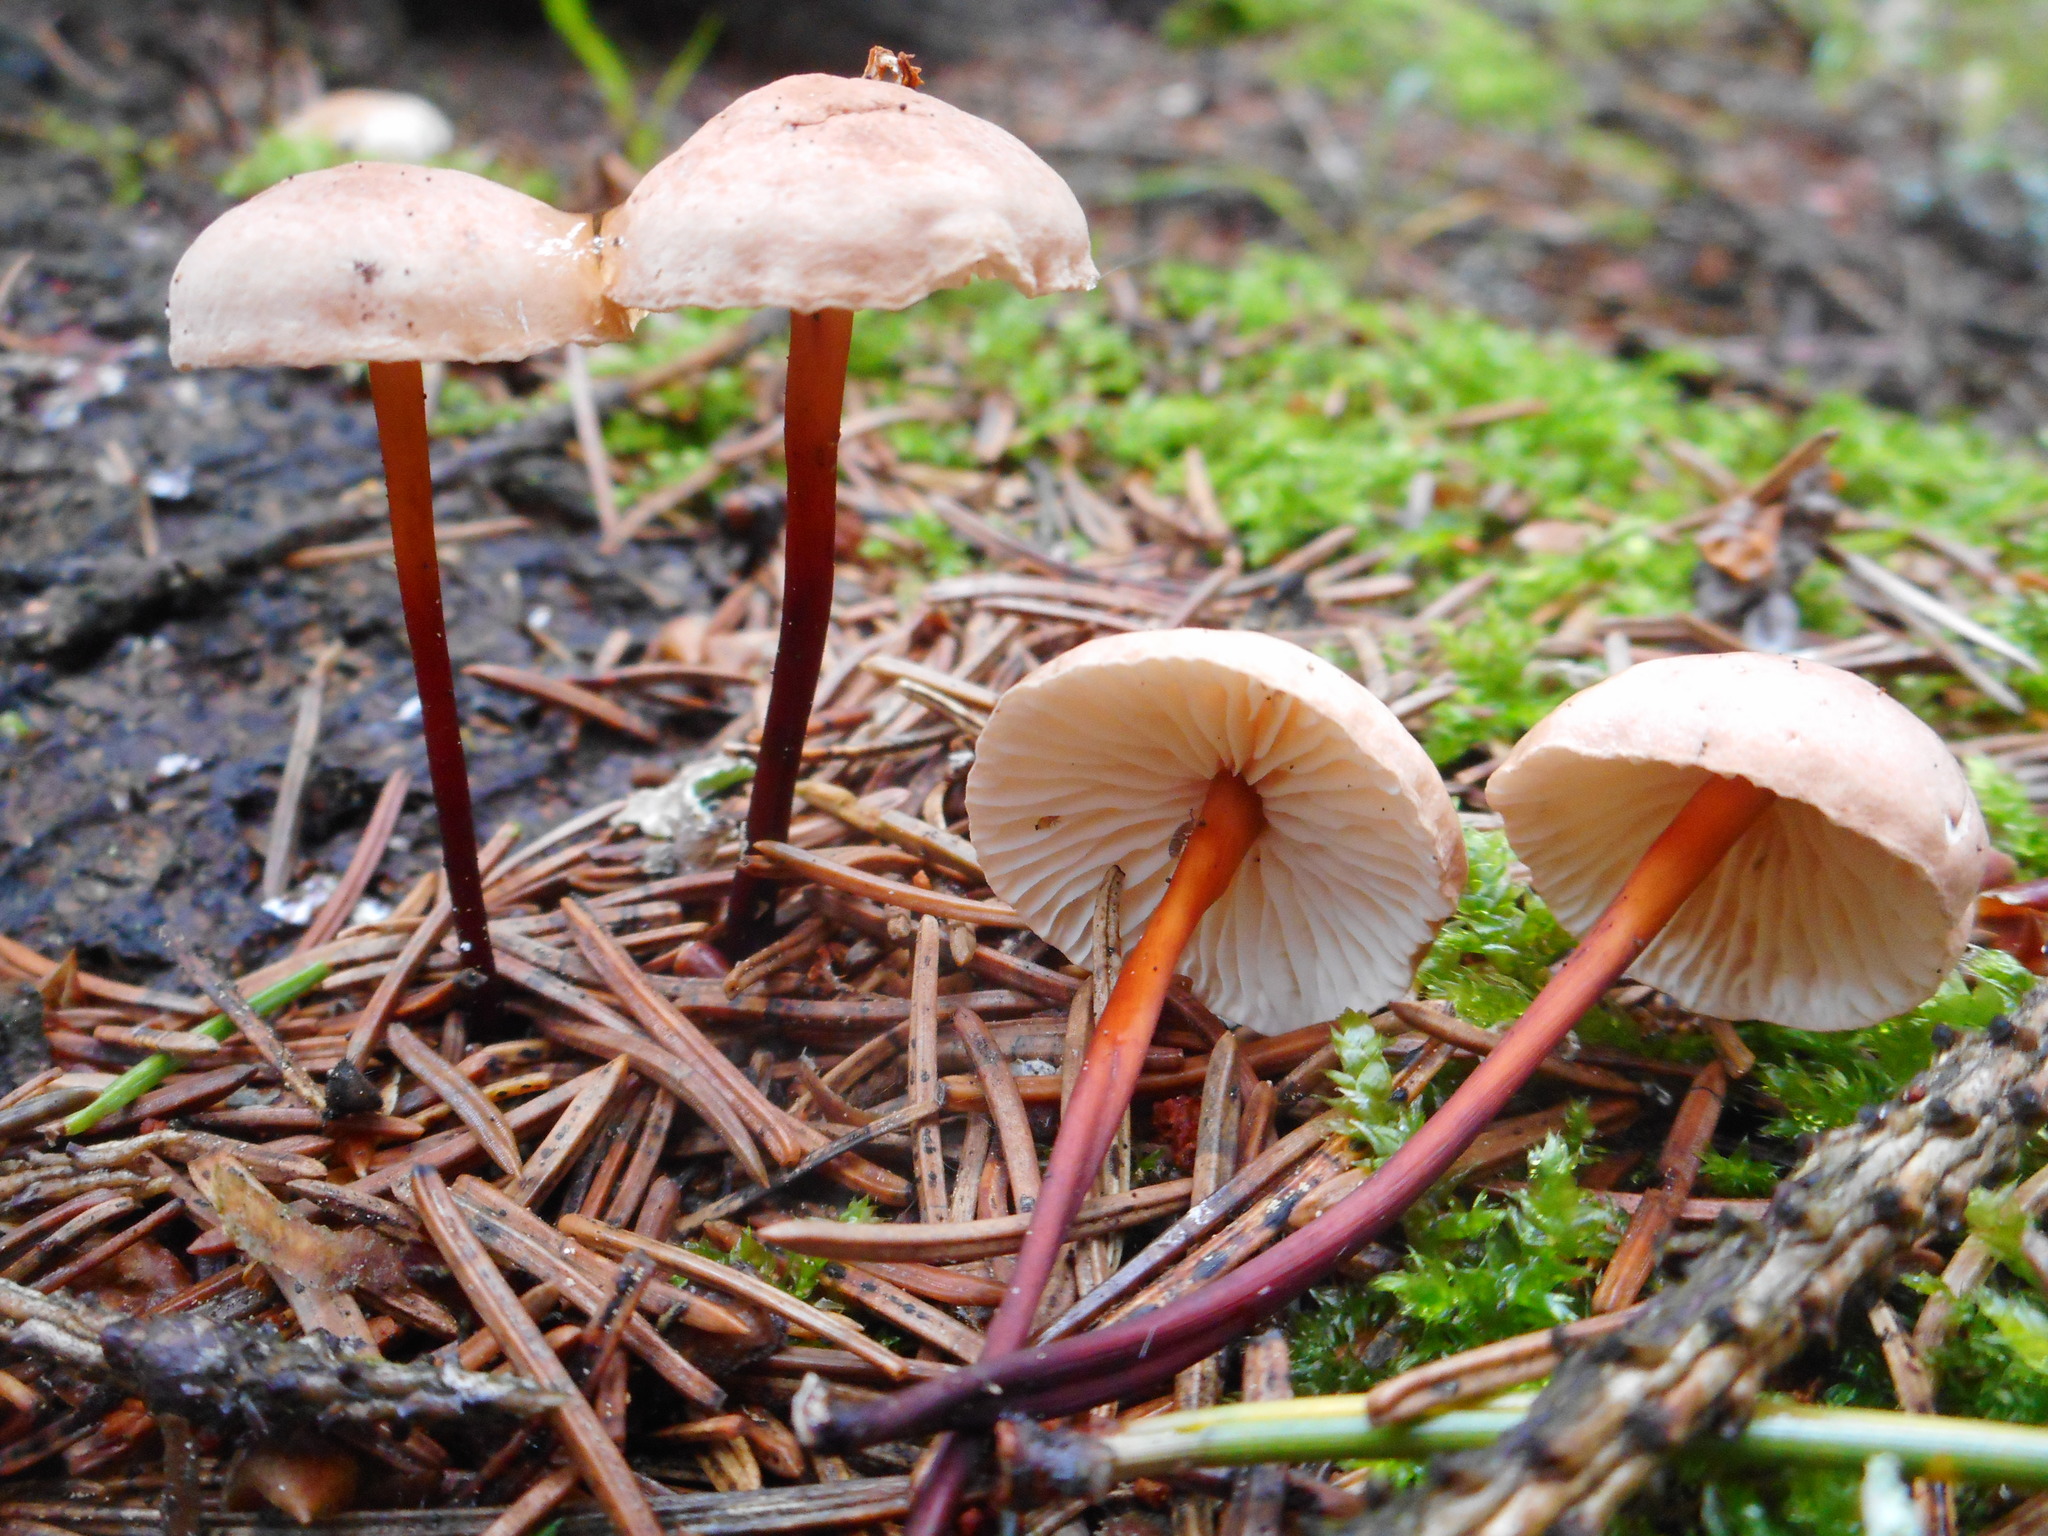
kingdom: Fungi
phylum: Basidiomycota
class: Agaricomycetes
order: Agaricales
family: Omphalotaceae
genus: Mycetinis
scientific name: Mycetinis scorodonius
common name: Vampires bane
